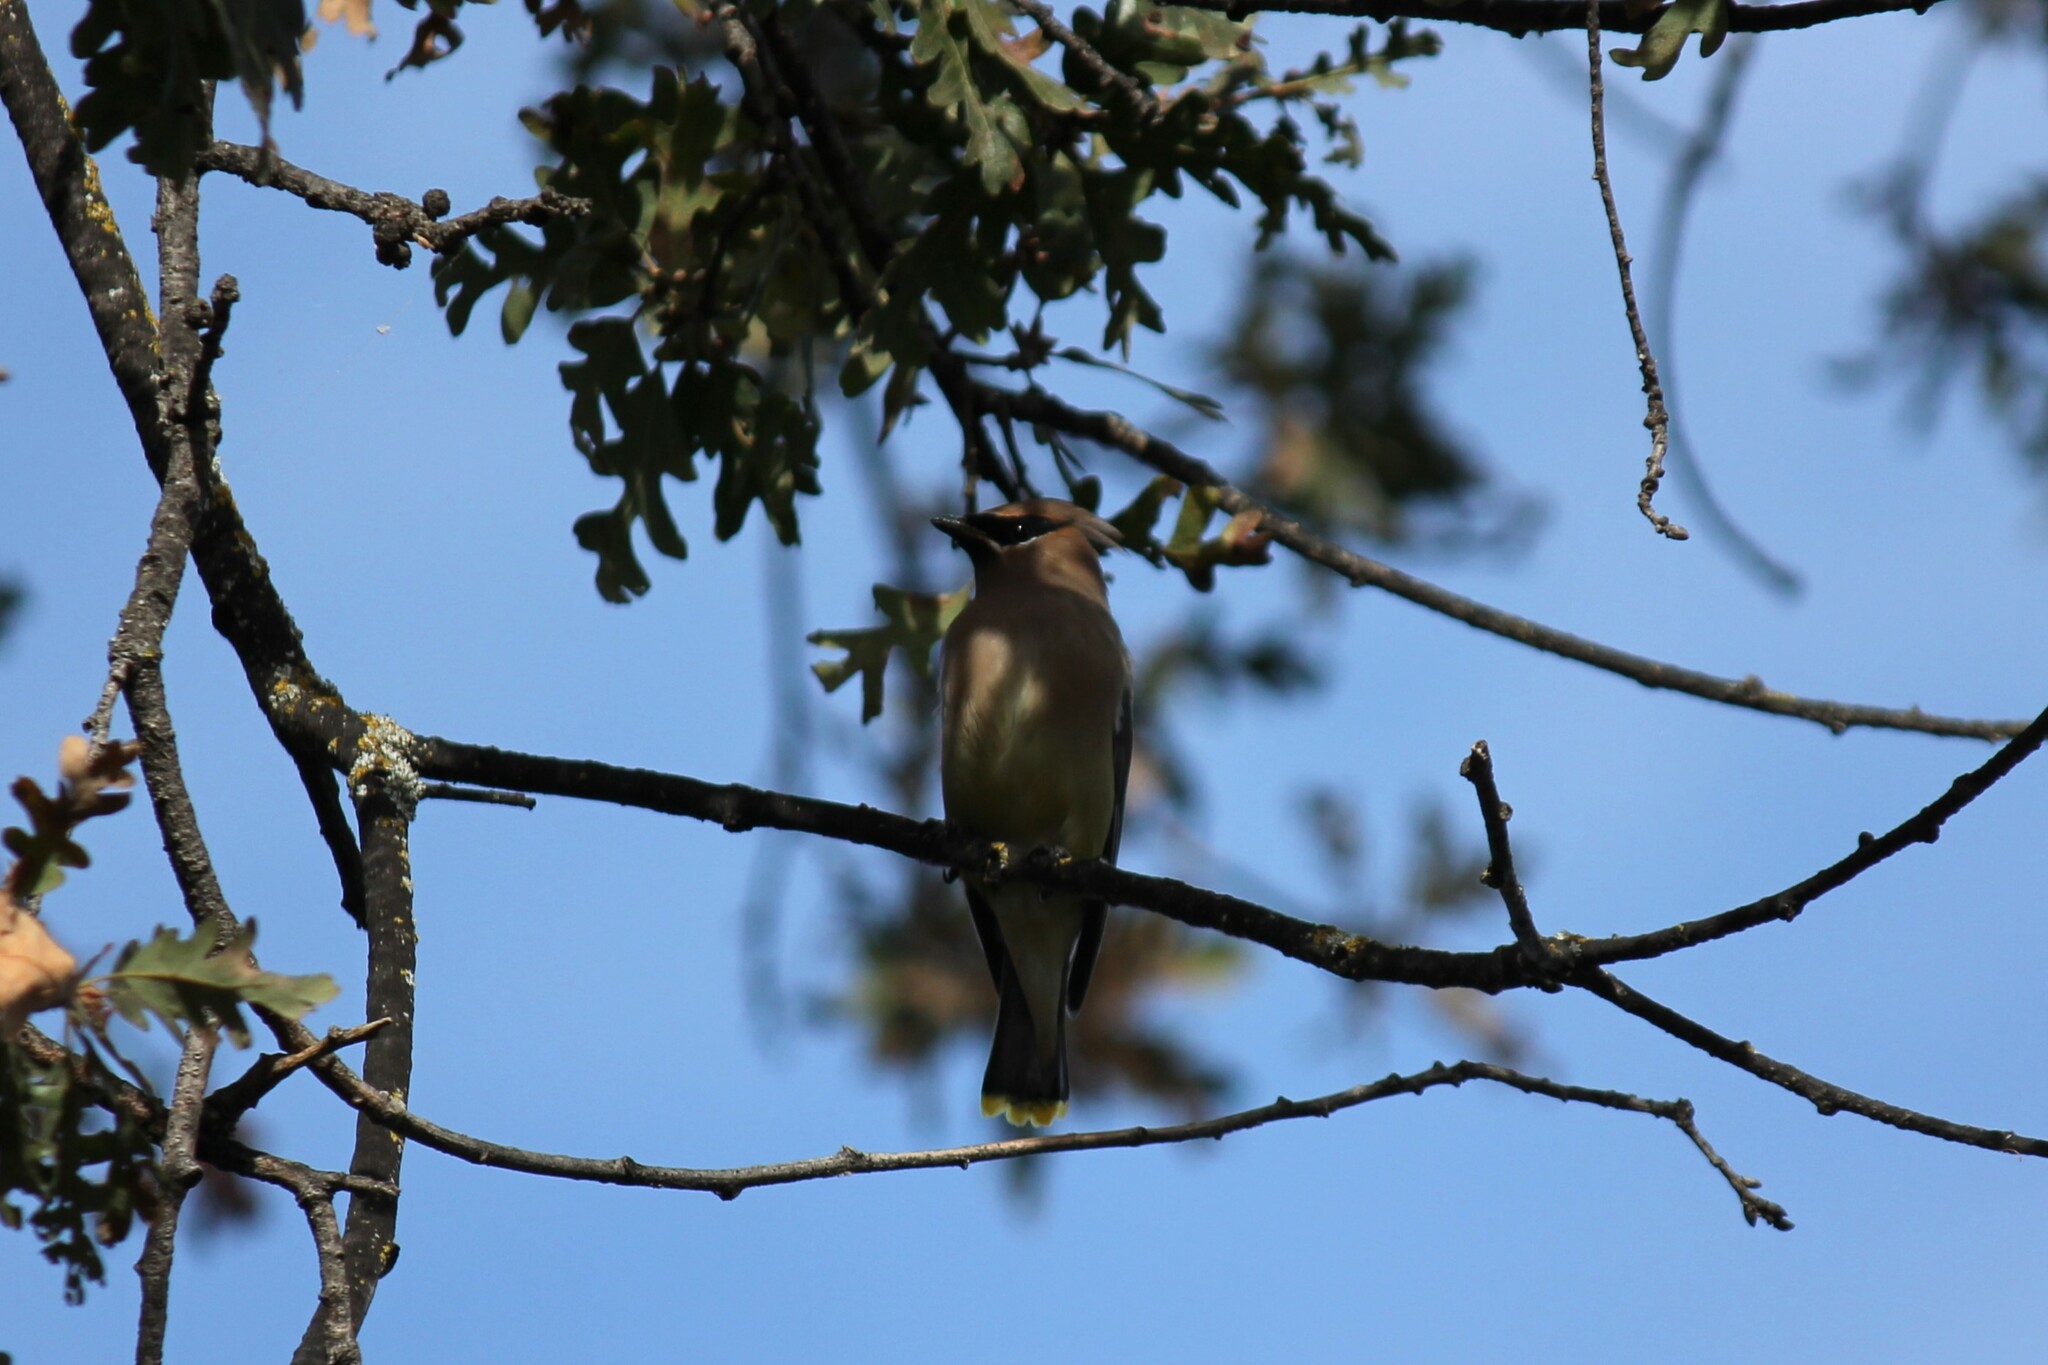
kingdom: Animalia
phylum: Chordata
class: Aves
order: Passeriformes
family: Bombycillidae
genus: Bombycilla
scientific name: Bombycilla cedrorum
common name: Cedar waxwing
